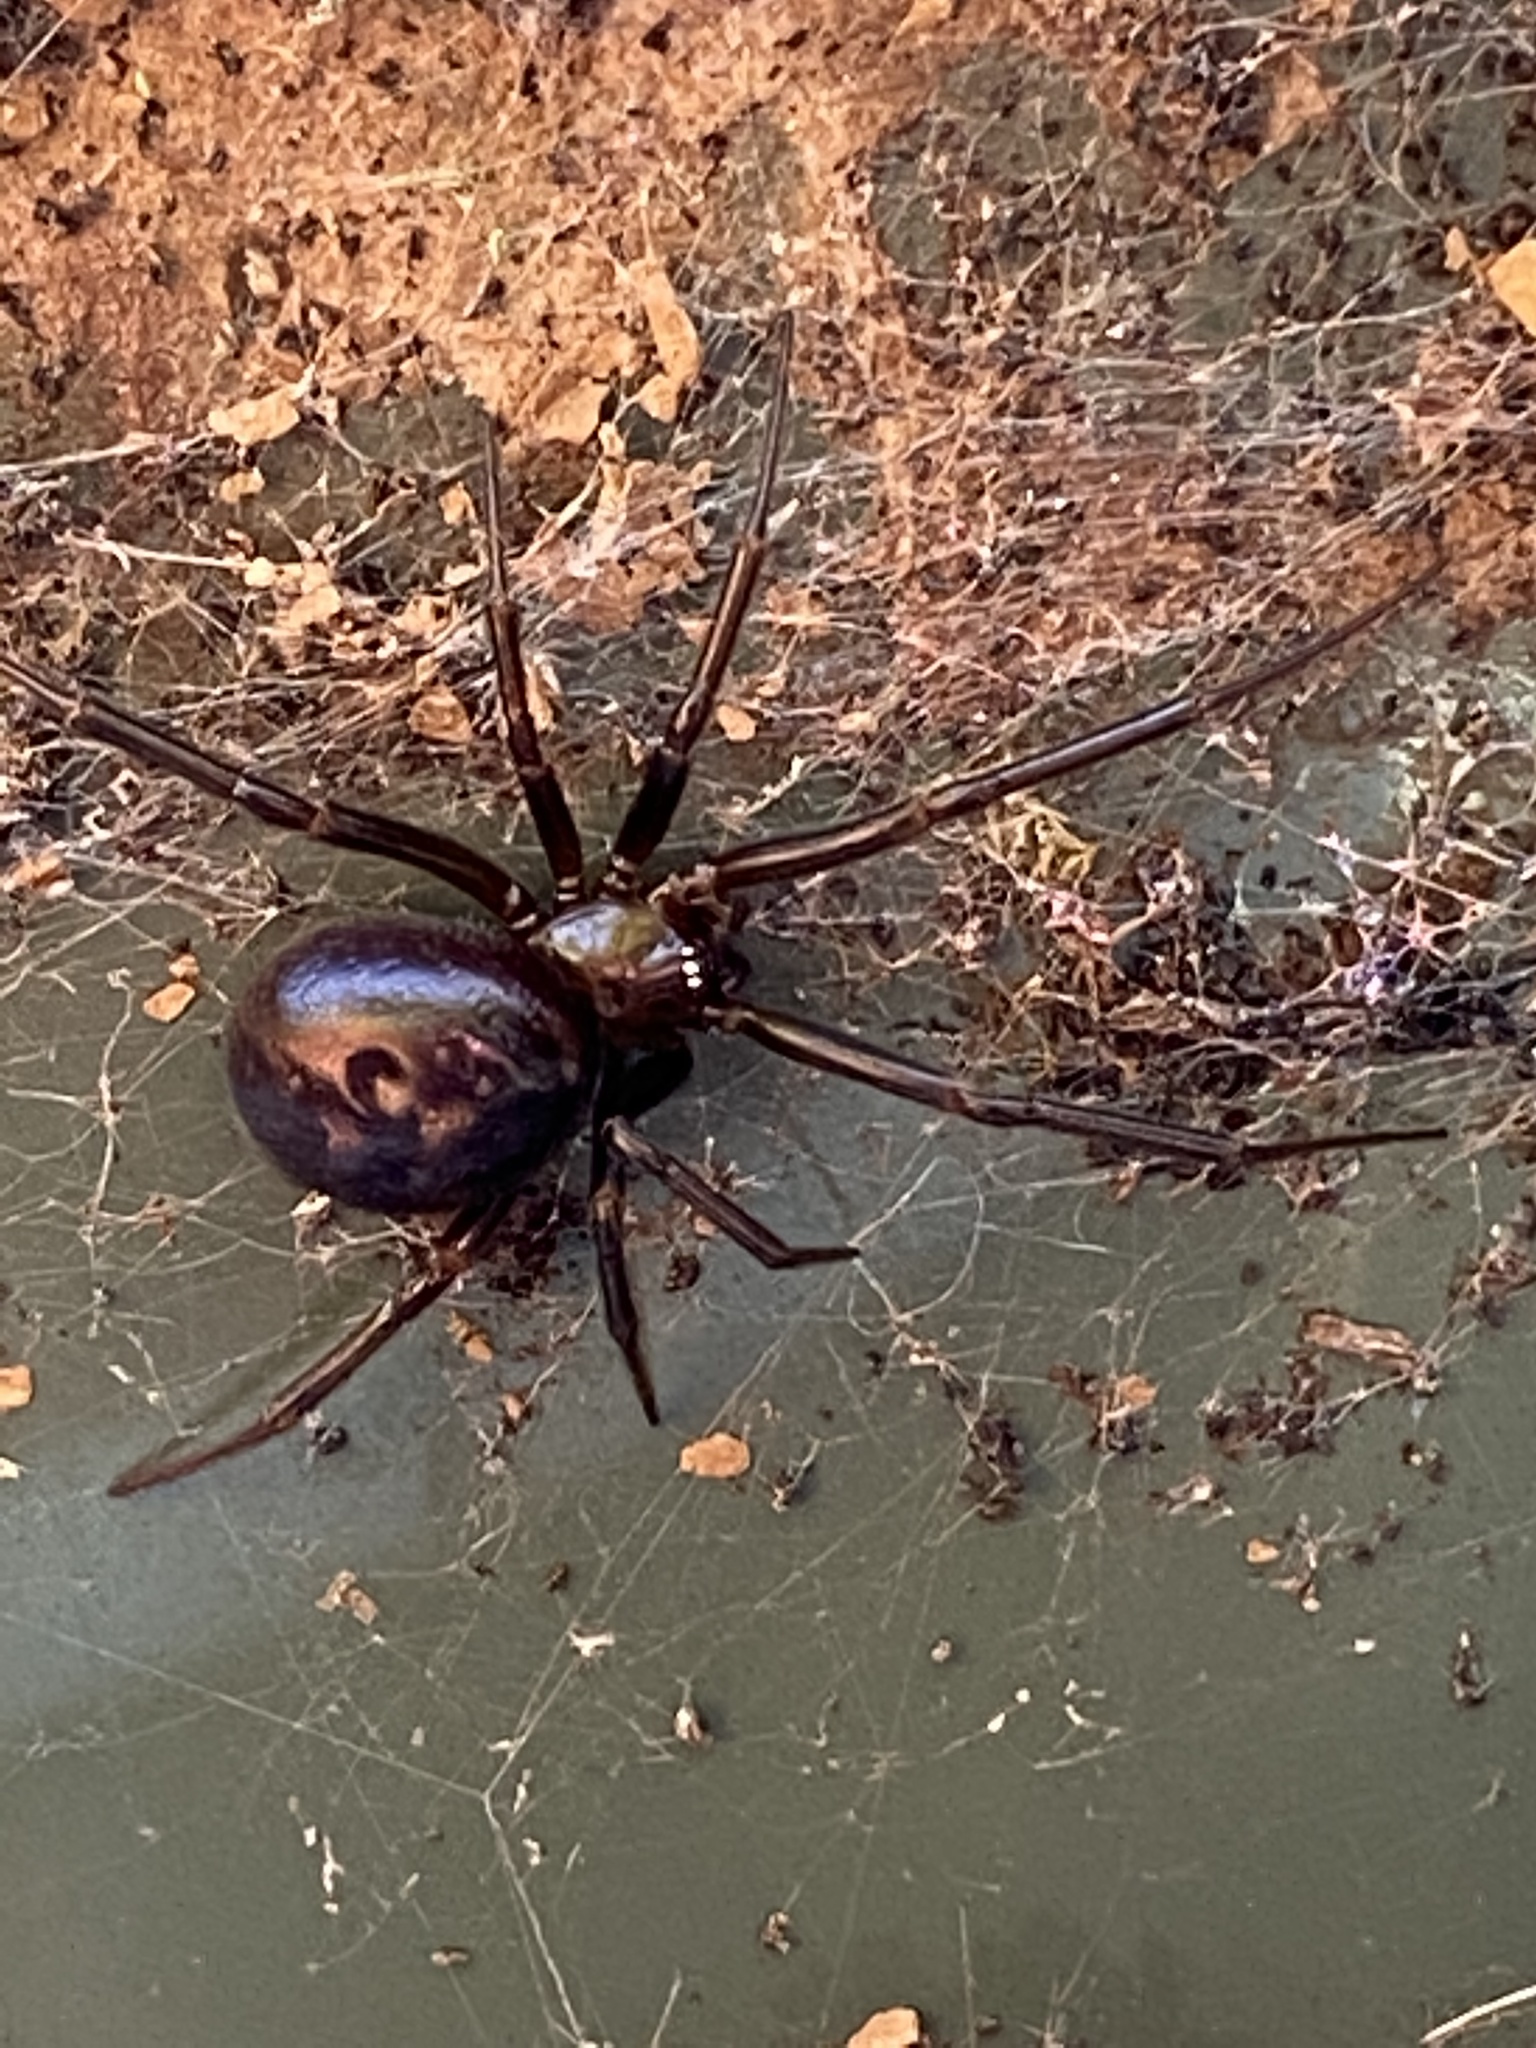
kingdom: Animalia
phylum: Arthropoda
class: Arachnida
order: Araneae
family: Theridiidae
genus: Steatoda
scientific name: Steatoda grossa
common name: False black widow
